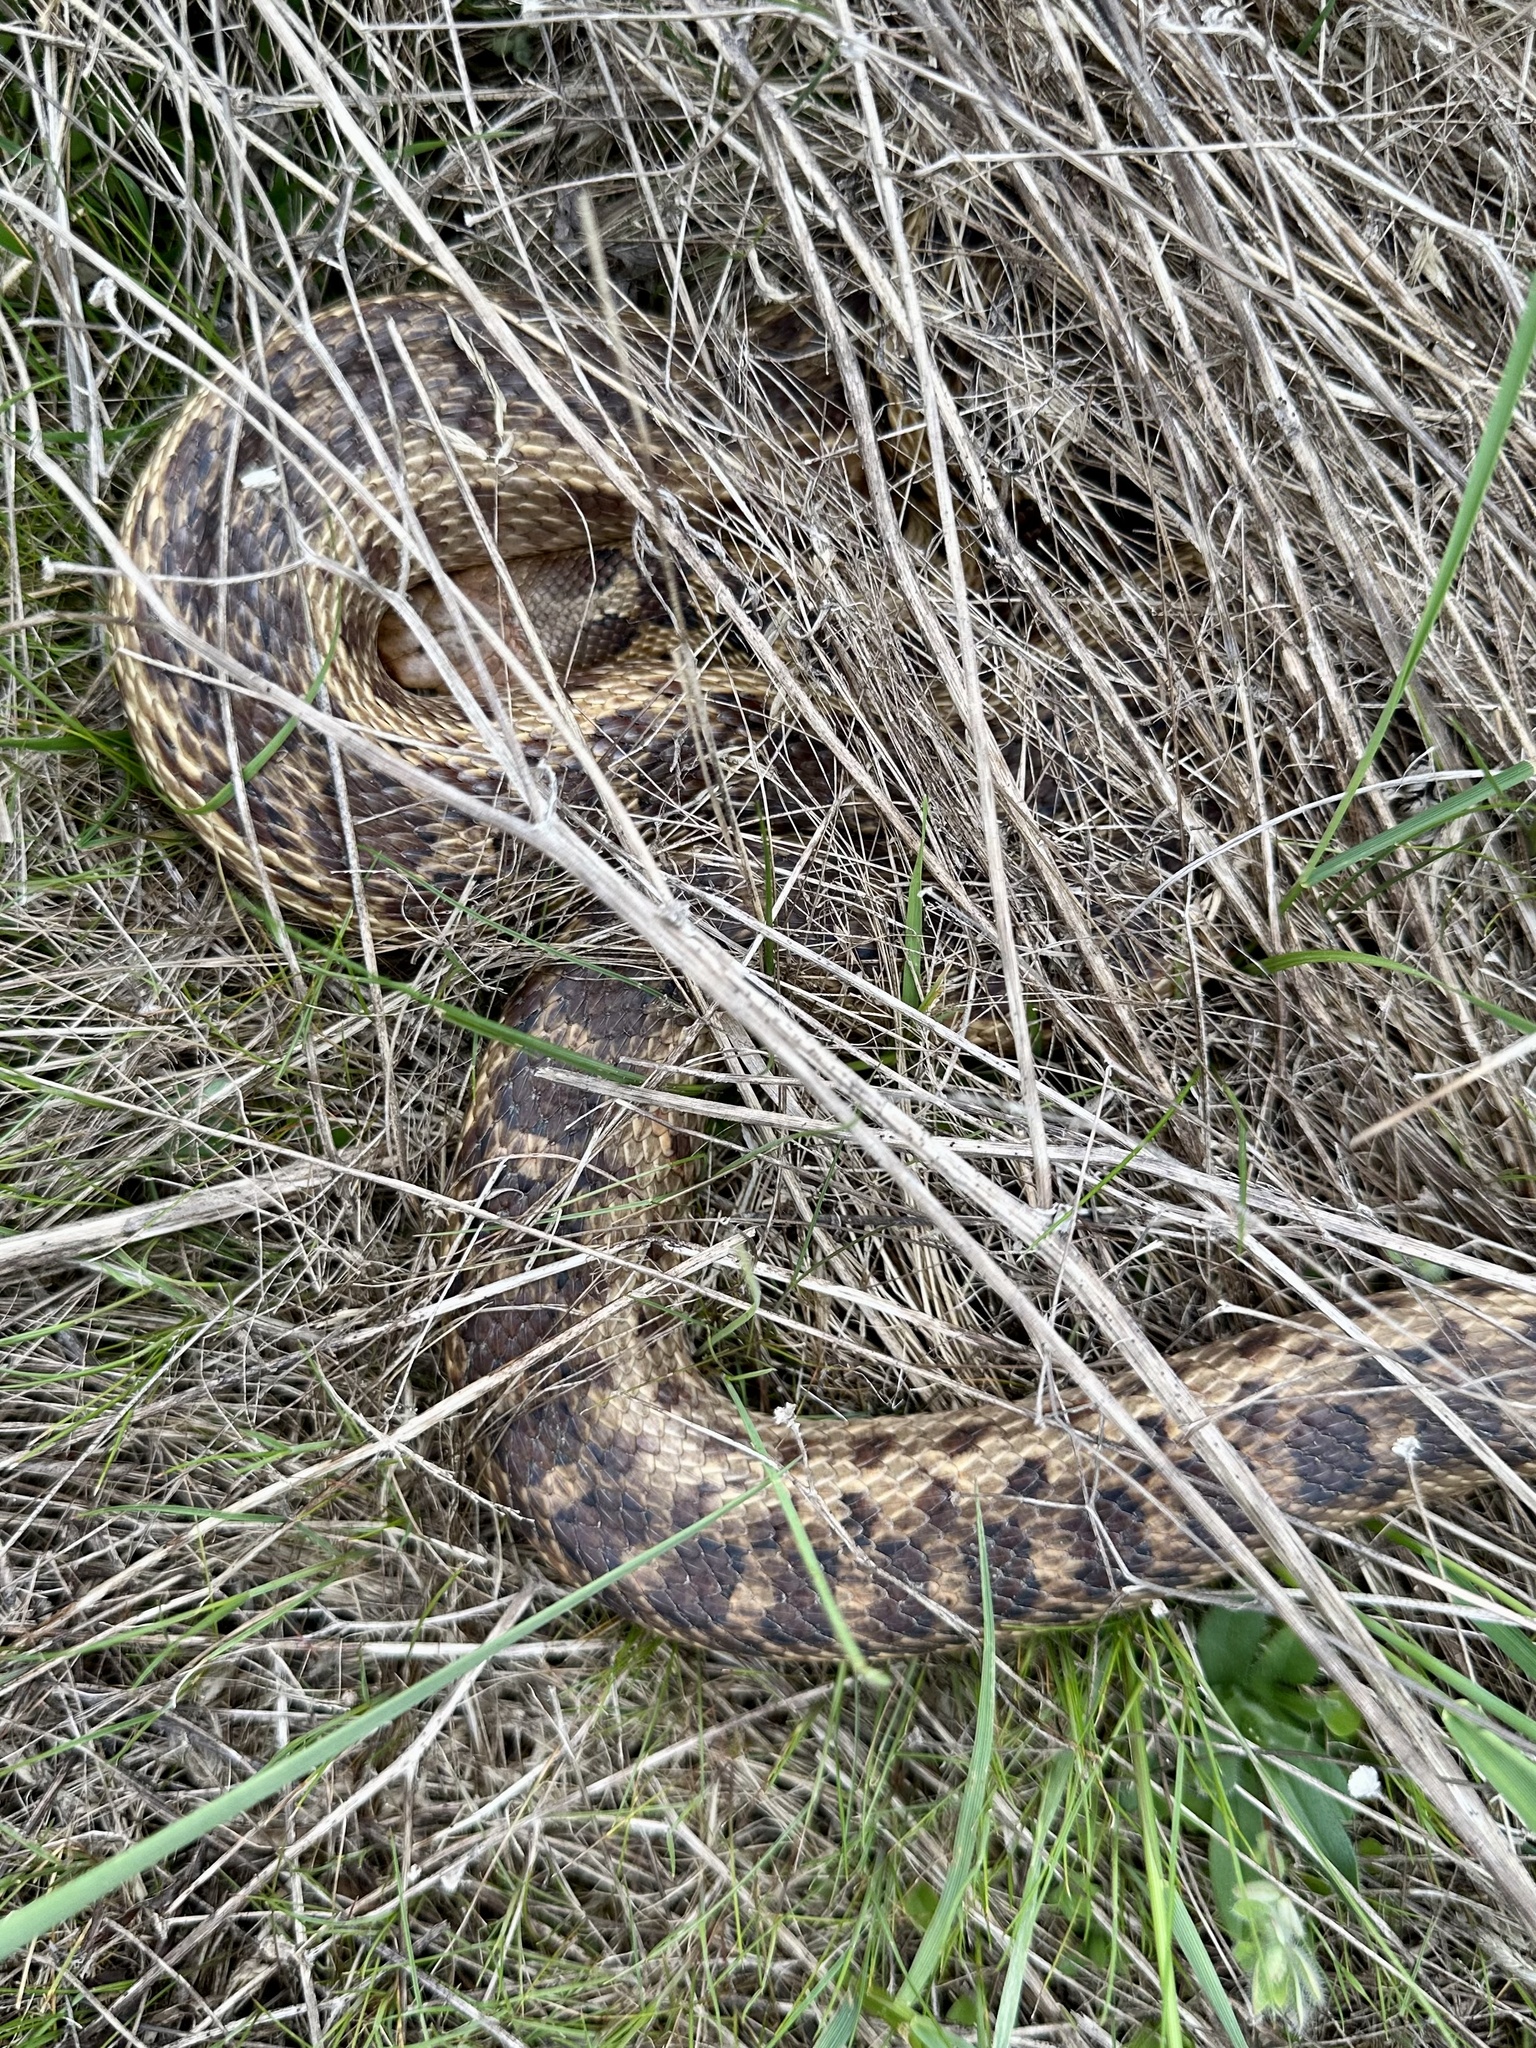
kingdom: Animalia
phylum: Chordata
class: Squamata
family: Colubridae
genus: Pituophis
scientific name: Pituophis catenifer
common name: Gopher snake
